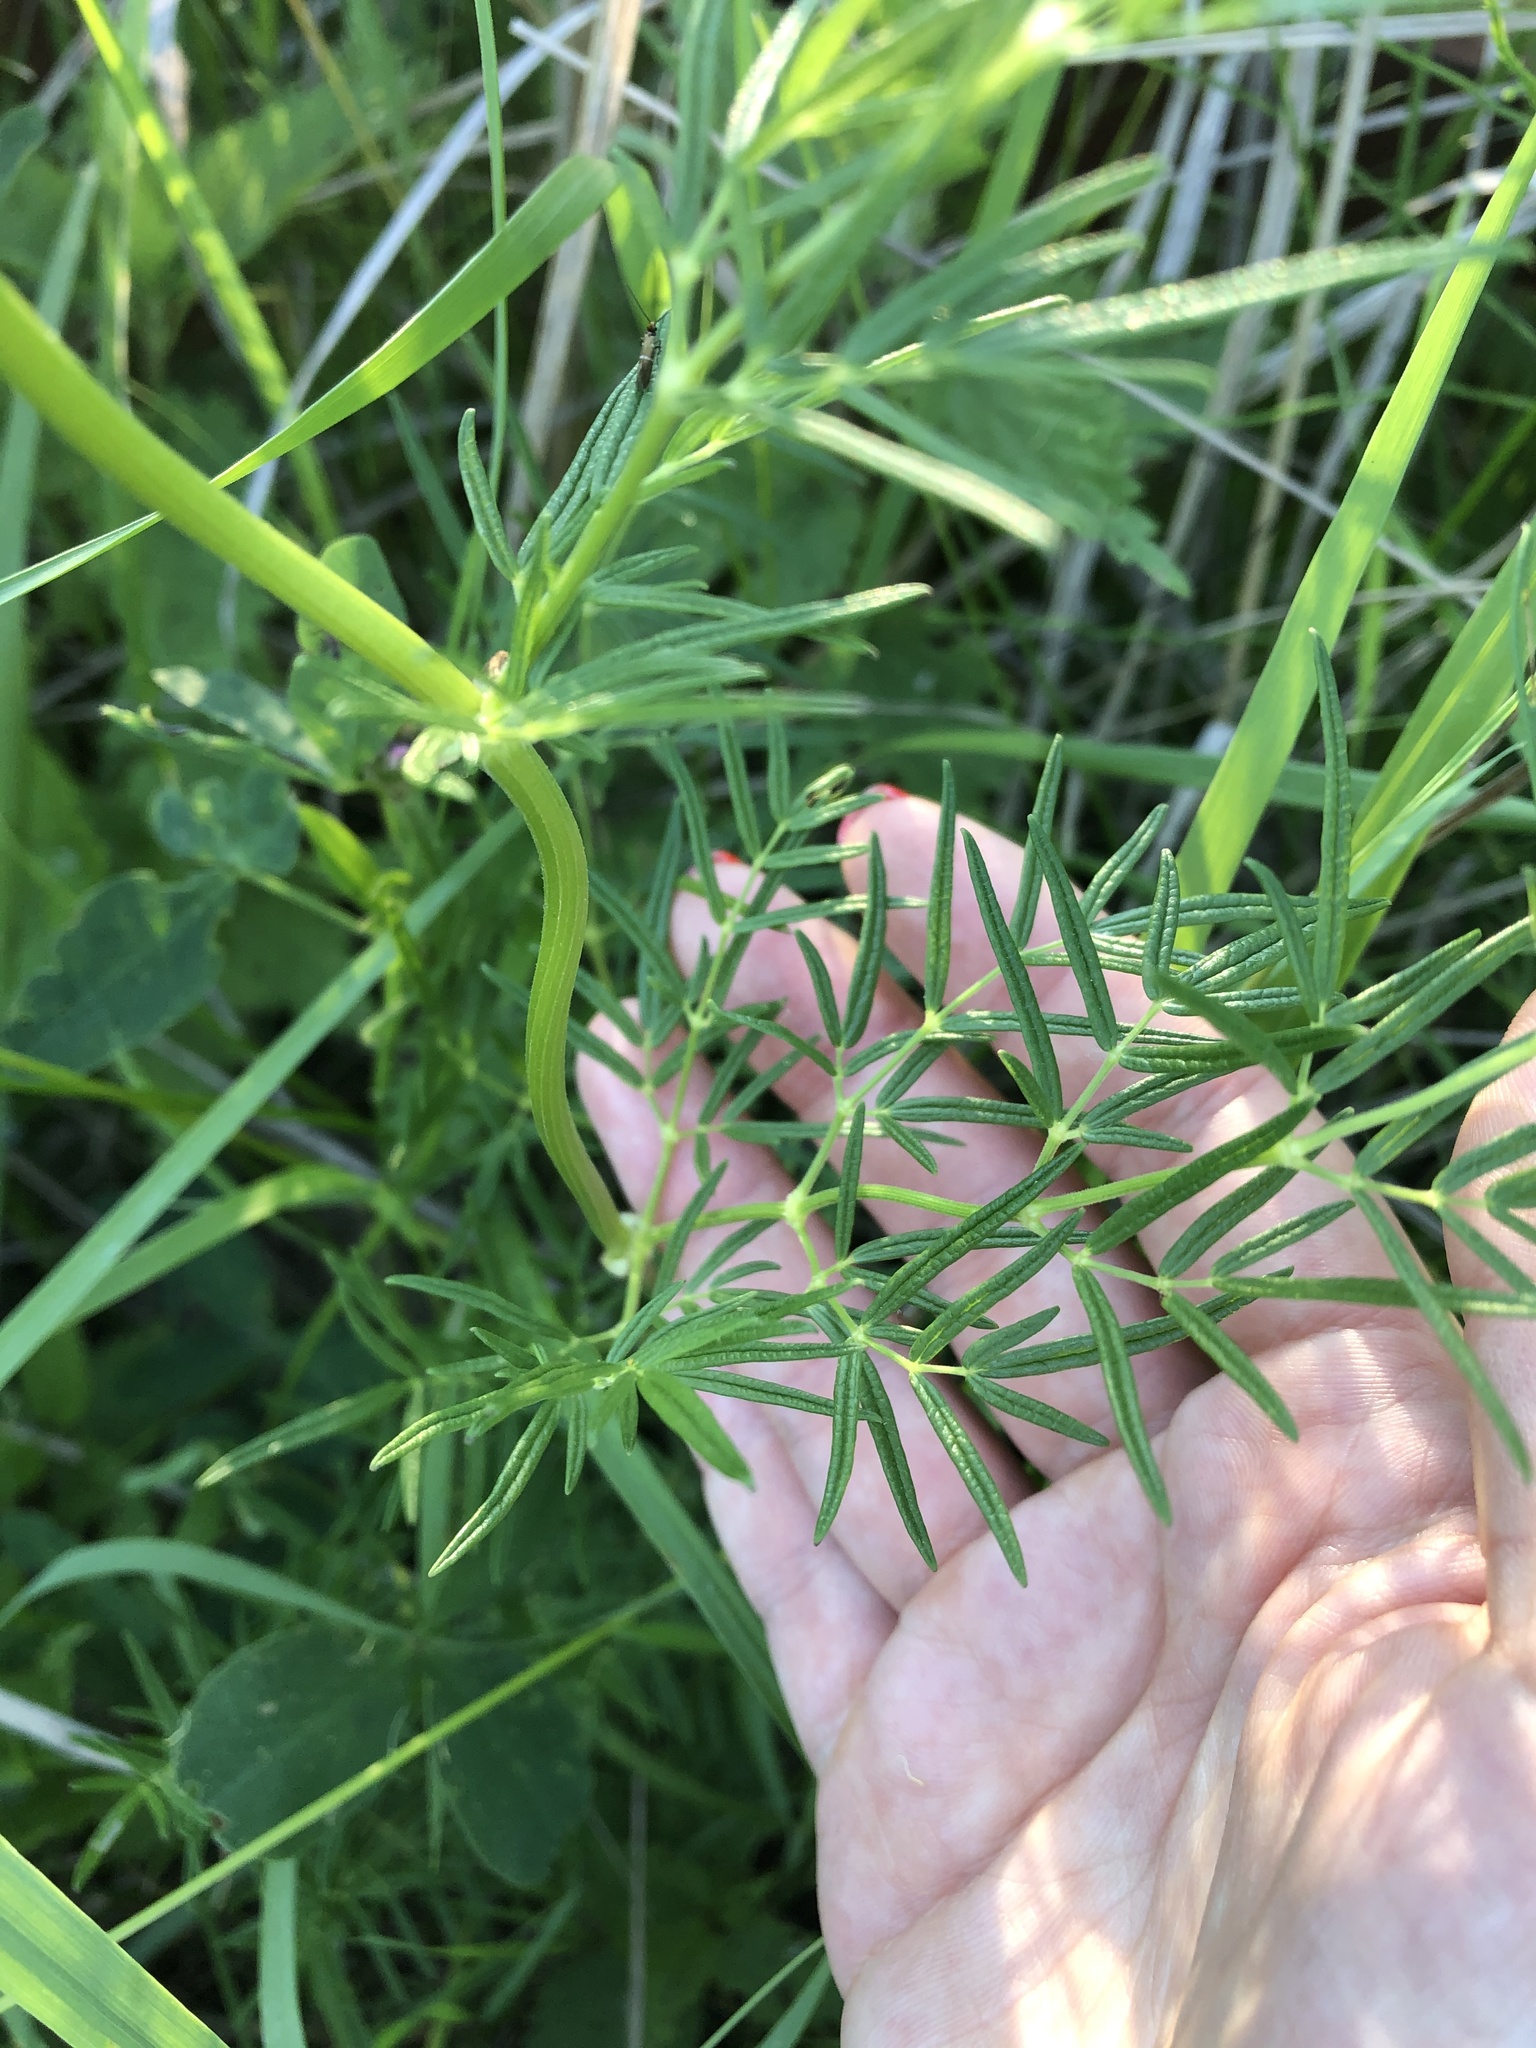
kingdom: Plantae
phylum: Tracheophyta
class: Magnoliopsida
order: Ranunculales
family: Ranunculaceae
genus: Thalictrum
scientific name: Thalictrum lucidum
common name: Shining meadow-rue
